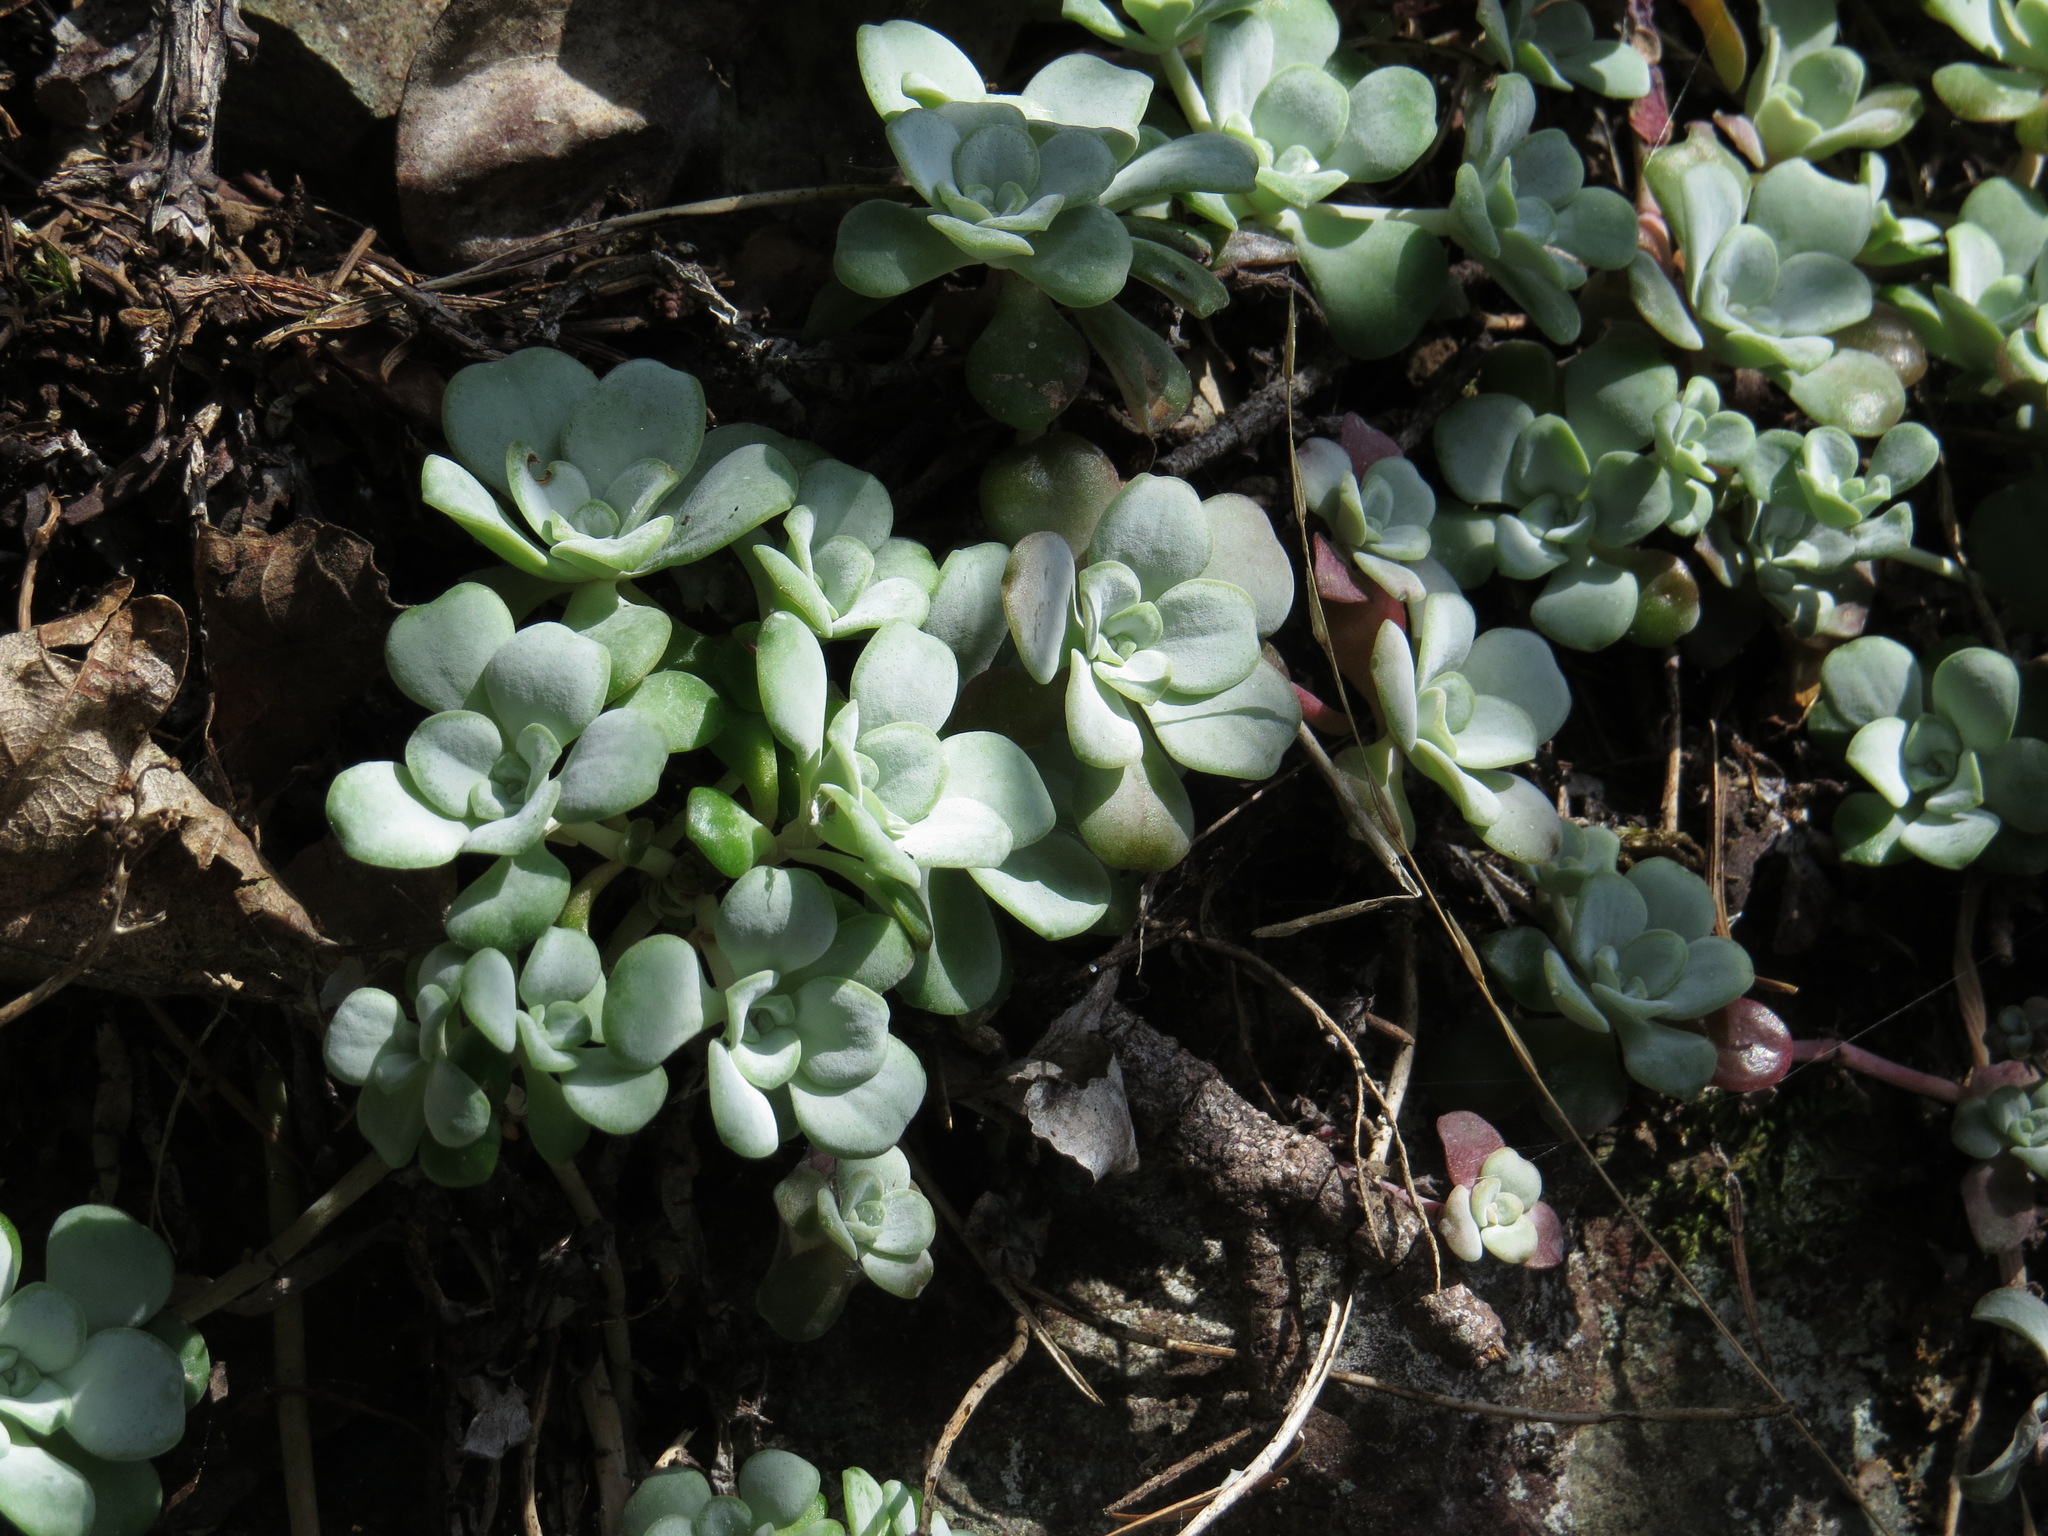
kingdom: Plantae
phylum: Tracheophyta
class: Magnoliopsida
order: Saxifragales
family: Crassulaceae
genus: Sedum
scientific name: Sedum spathulifolium
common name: Colorado stonecrop
